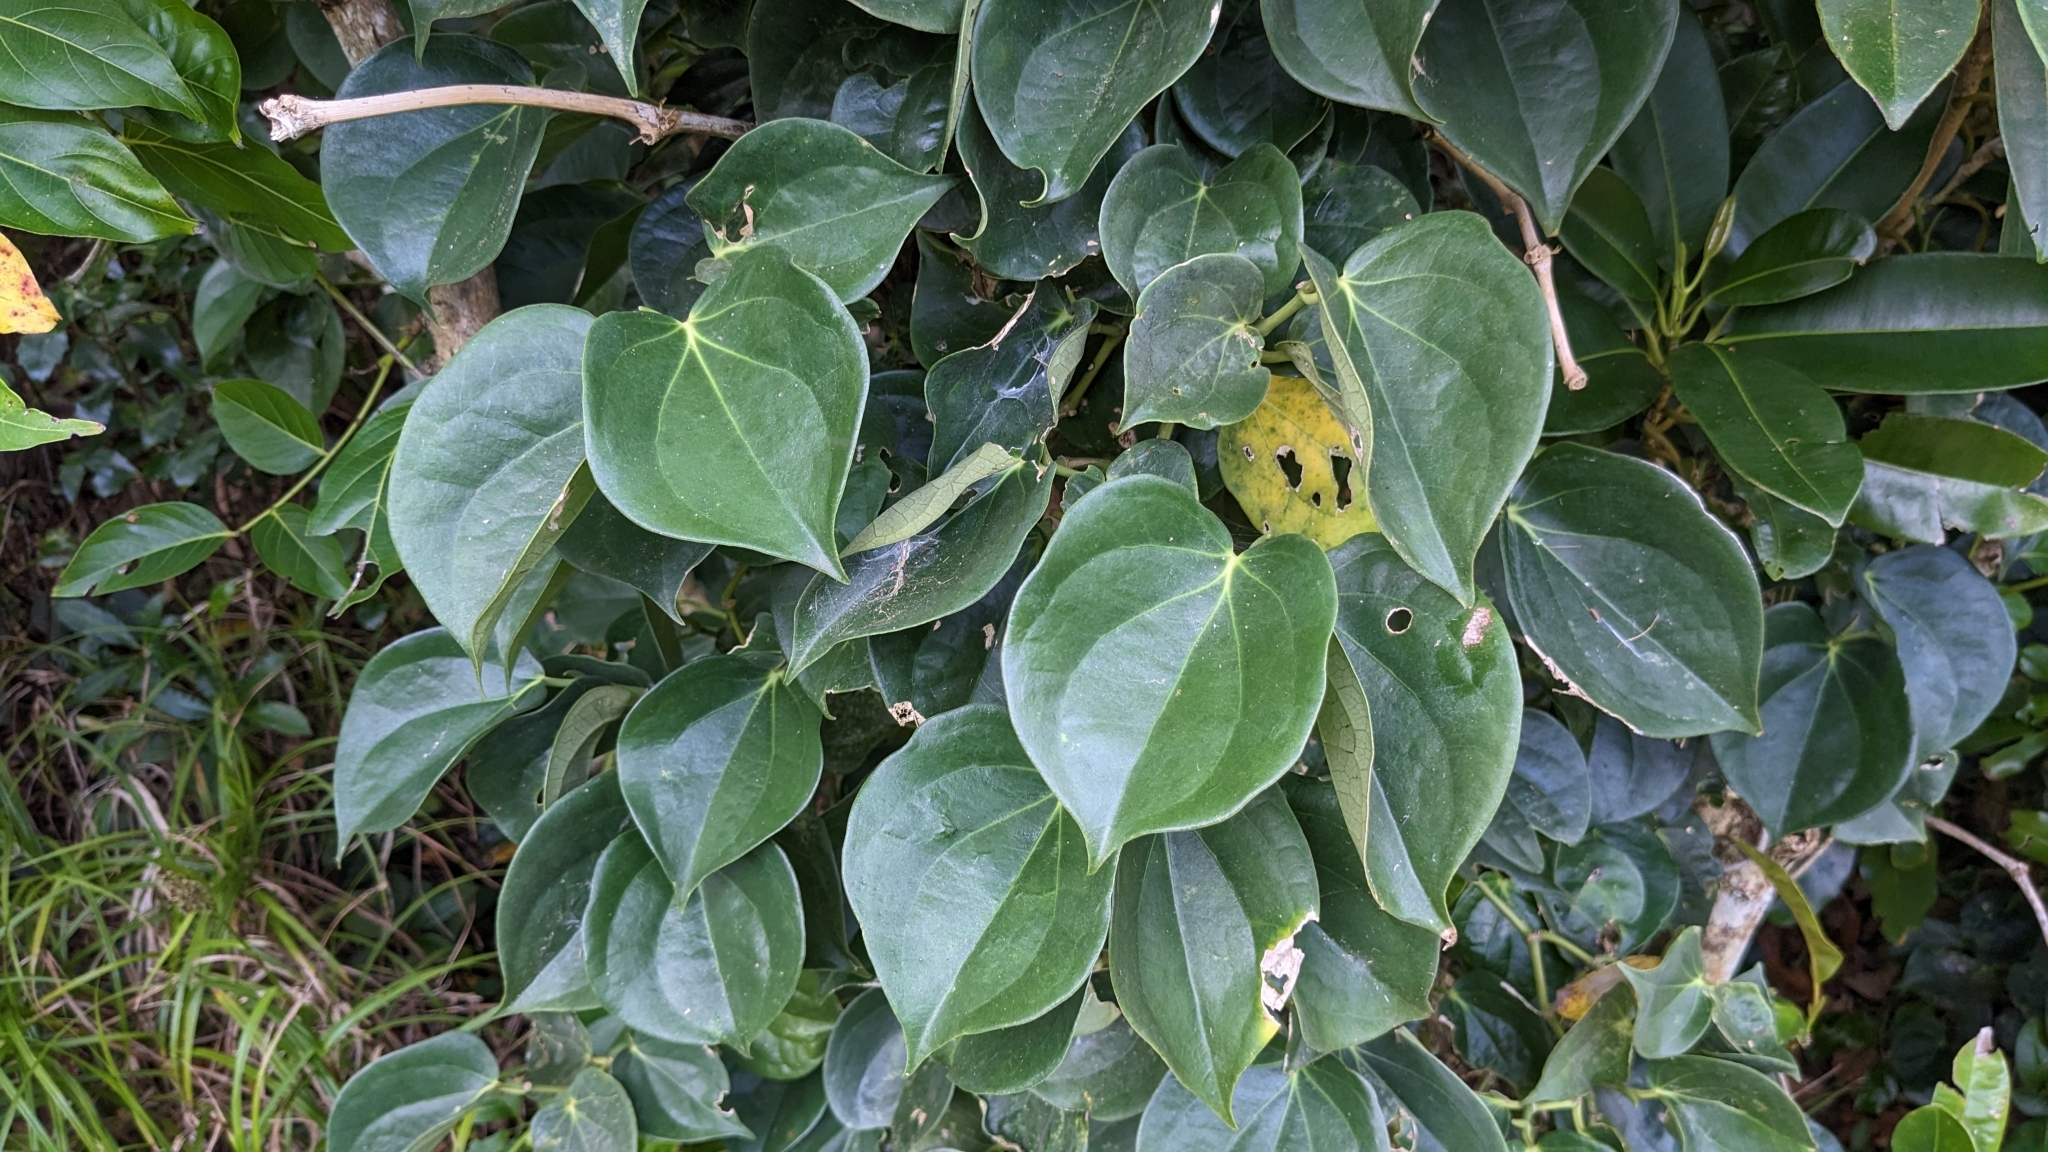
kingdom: Plantae
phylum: Tracheophyta
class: Magnoliopsida
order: Piperales
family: Piperaceae
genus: Piper
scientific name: Piper lanyuense
